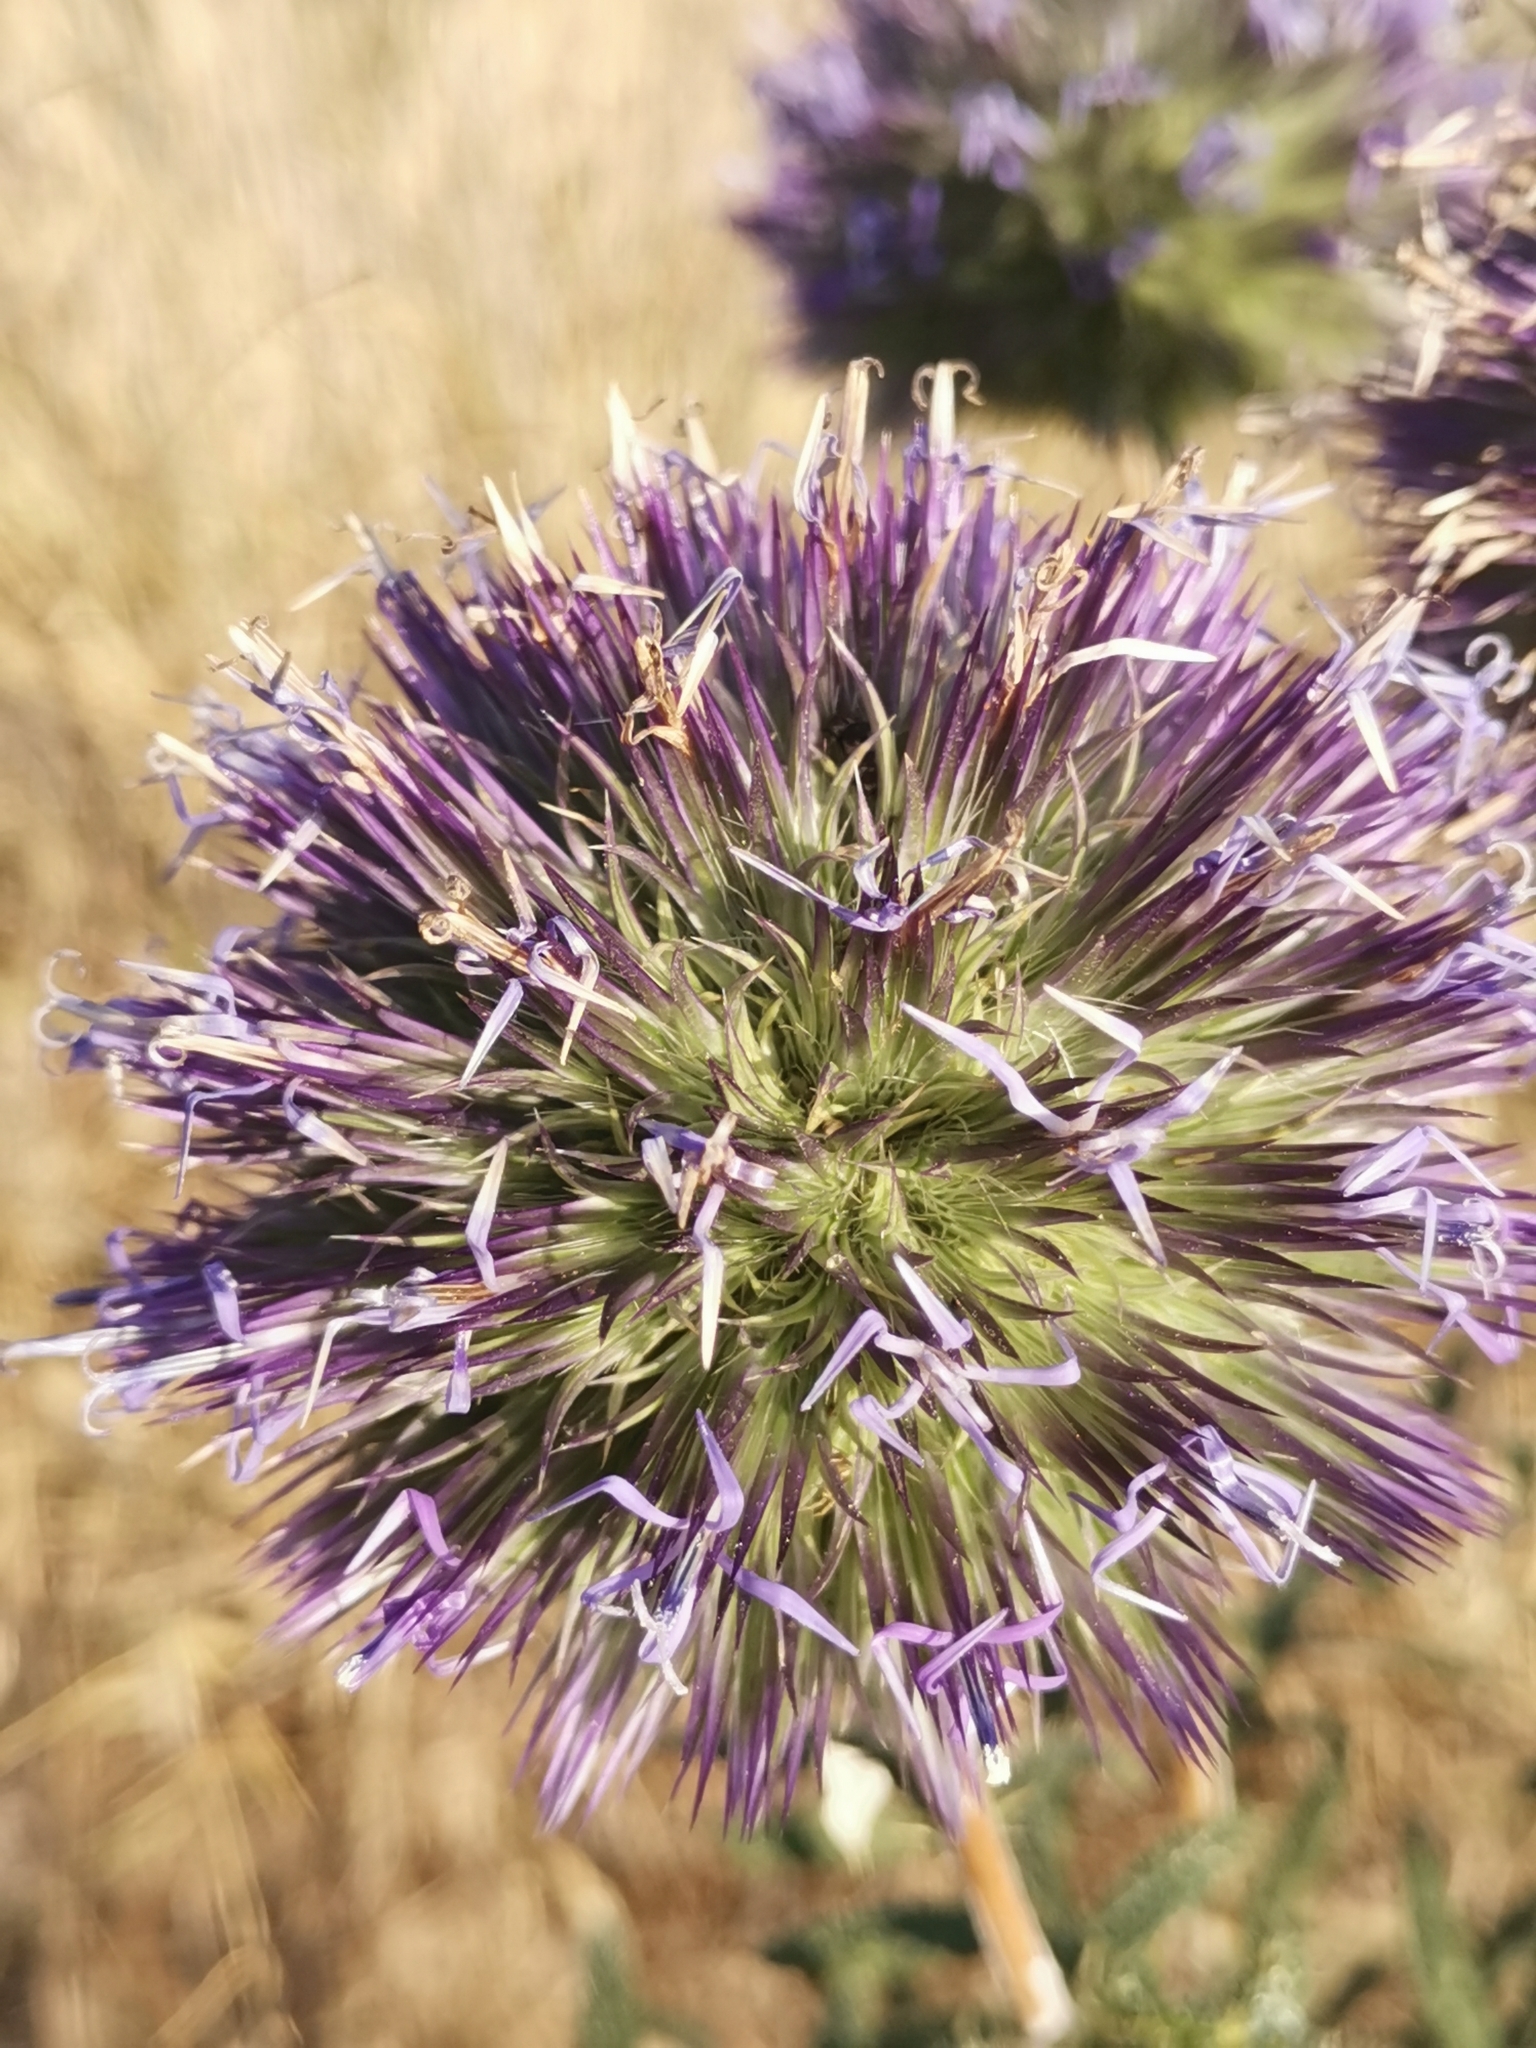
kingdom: Plantae
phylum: Tracheophyta
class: Magnoliopsida
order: Asterales
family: Asteraceae
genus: Echinops
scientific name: Echinops strigosus
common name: Rough-leaf globe thistle
